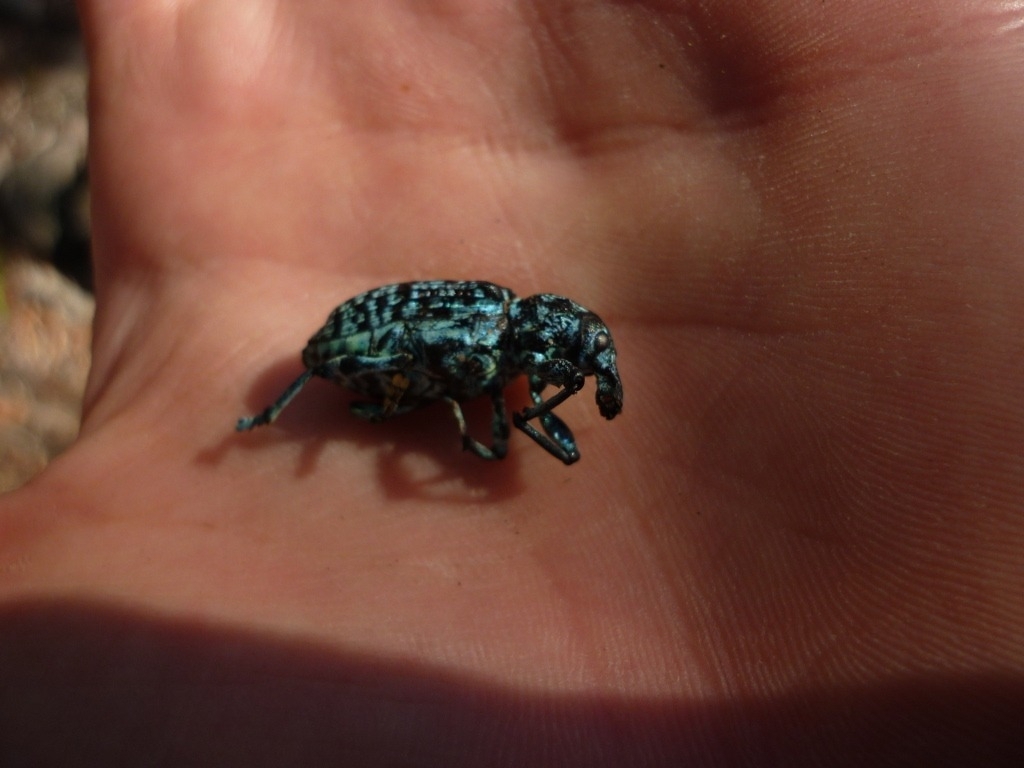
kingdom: Animalia
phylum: Arthropoda
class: Insecta
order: Coleoptera
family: Curculionidae
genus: Chrysolopus
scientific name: Chrysolopus spectabilis
